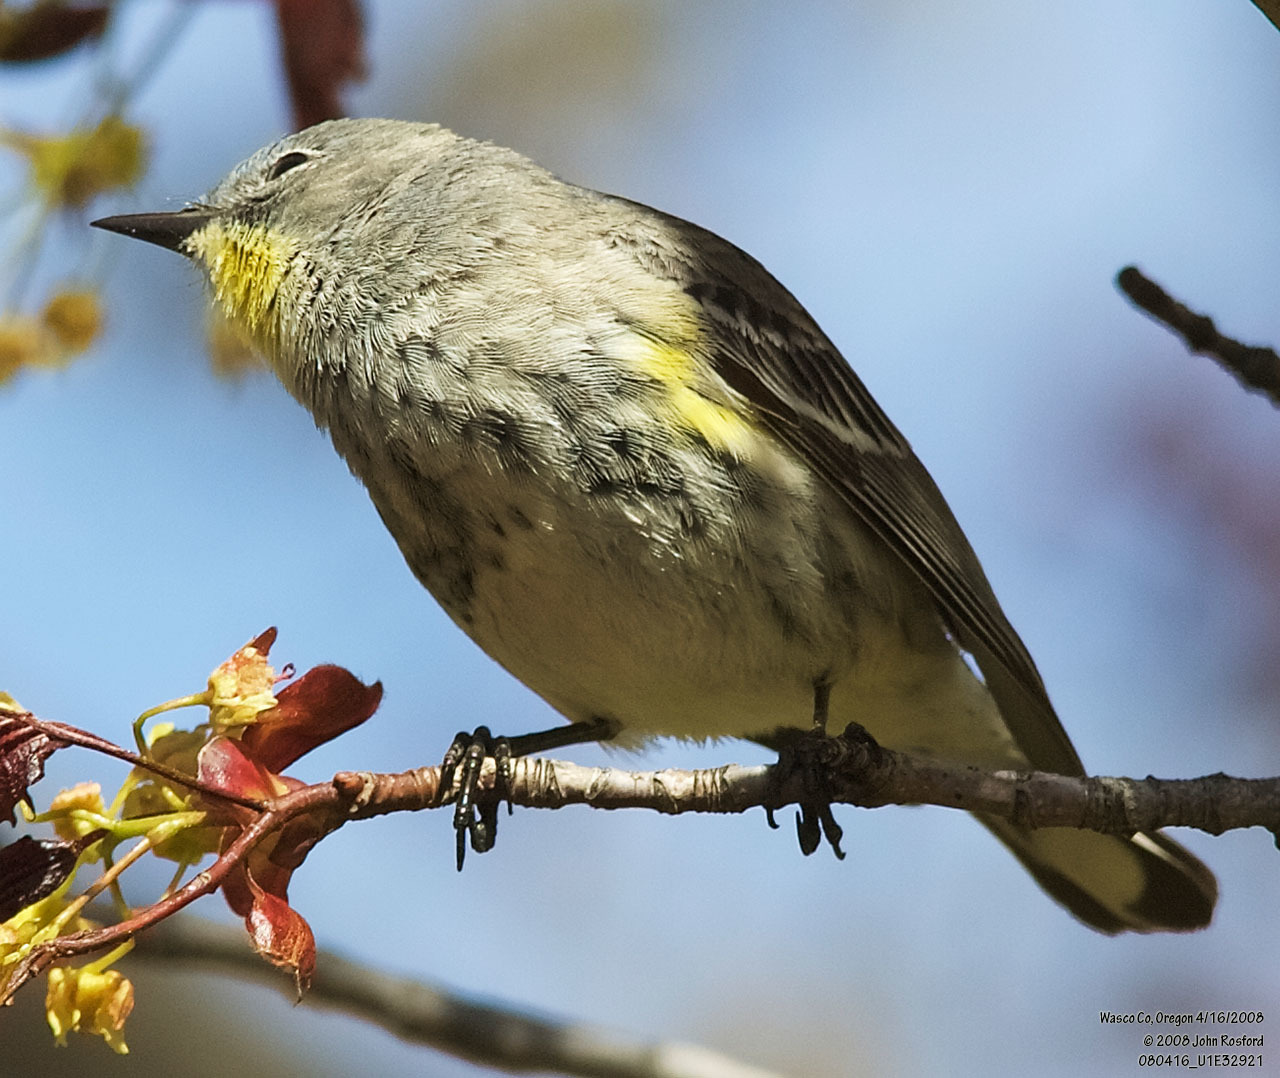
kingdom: Animalia
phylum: Chordata
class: Aves
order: Passeriformes
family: Parulidae
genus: Setophaga
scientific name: Setophaga coronata
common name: Myrtle warbler
